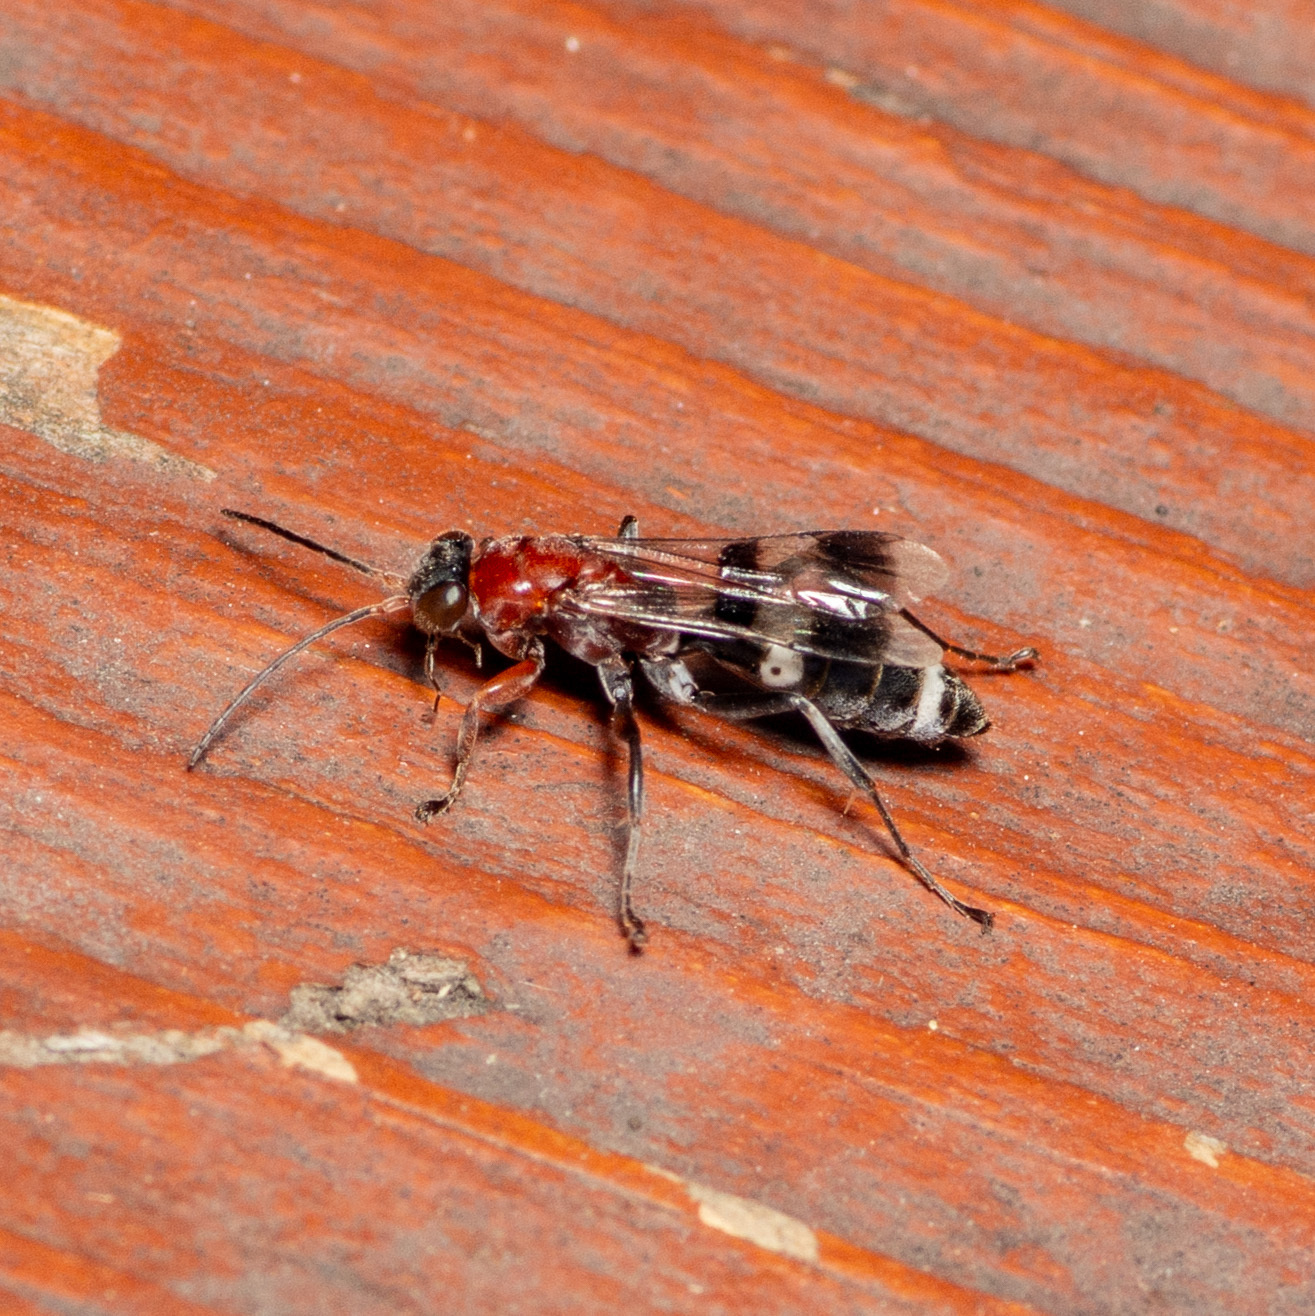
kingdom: Animalia
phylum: Arthropoda
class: Insecta
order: Hymenoptera
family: Pompilidae
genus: Epipompilus
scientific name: Epipompilus aztecus
